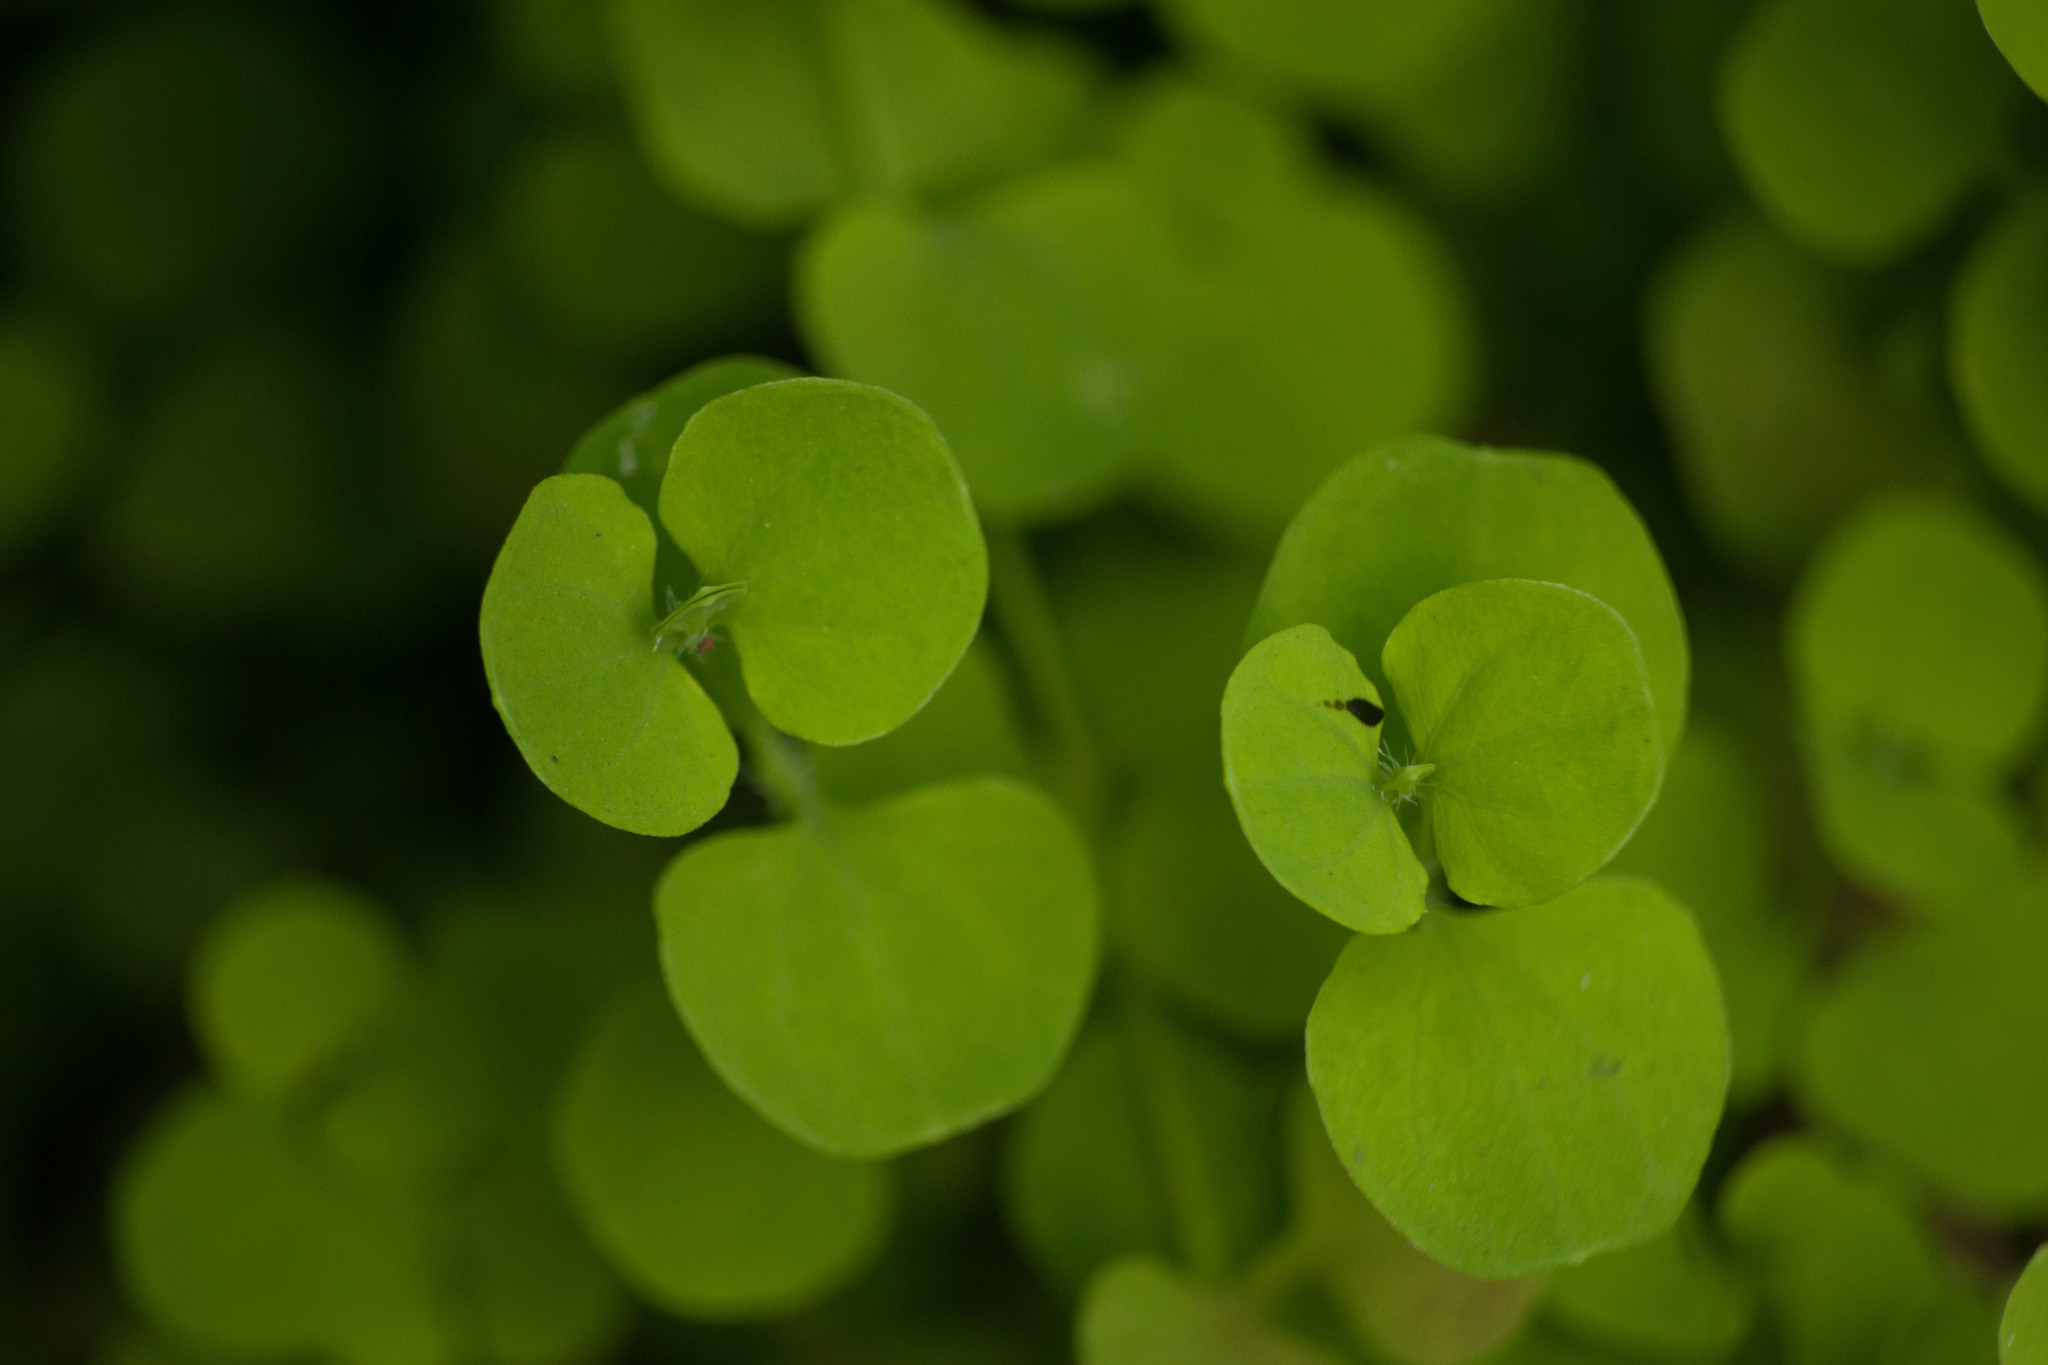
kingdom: Plantae
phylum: Tracheophyta
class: Magnoliopsida
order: Caryophyllales
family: Caryophyllaceae
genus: Drymaria
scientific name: Drymaria cordata
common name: Whitesnow
